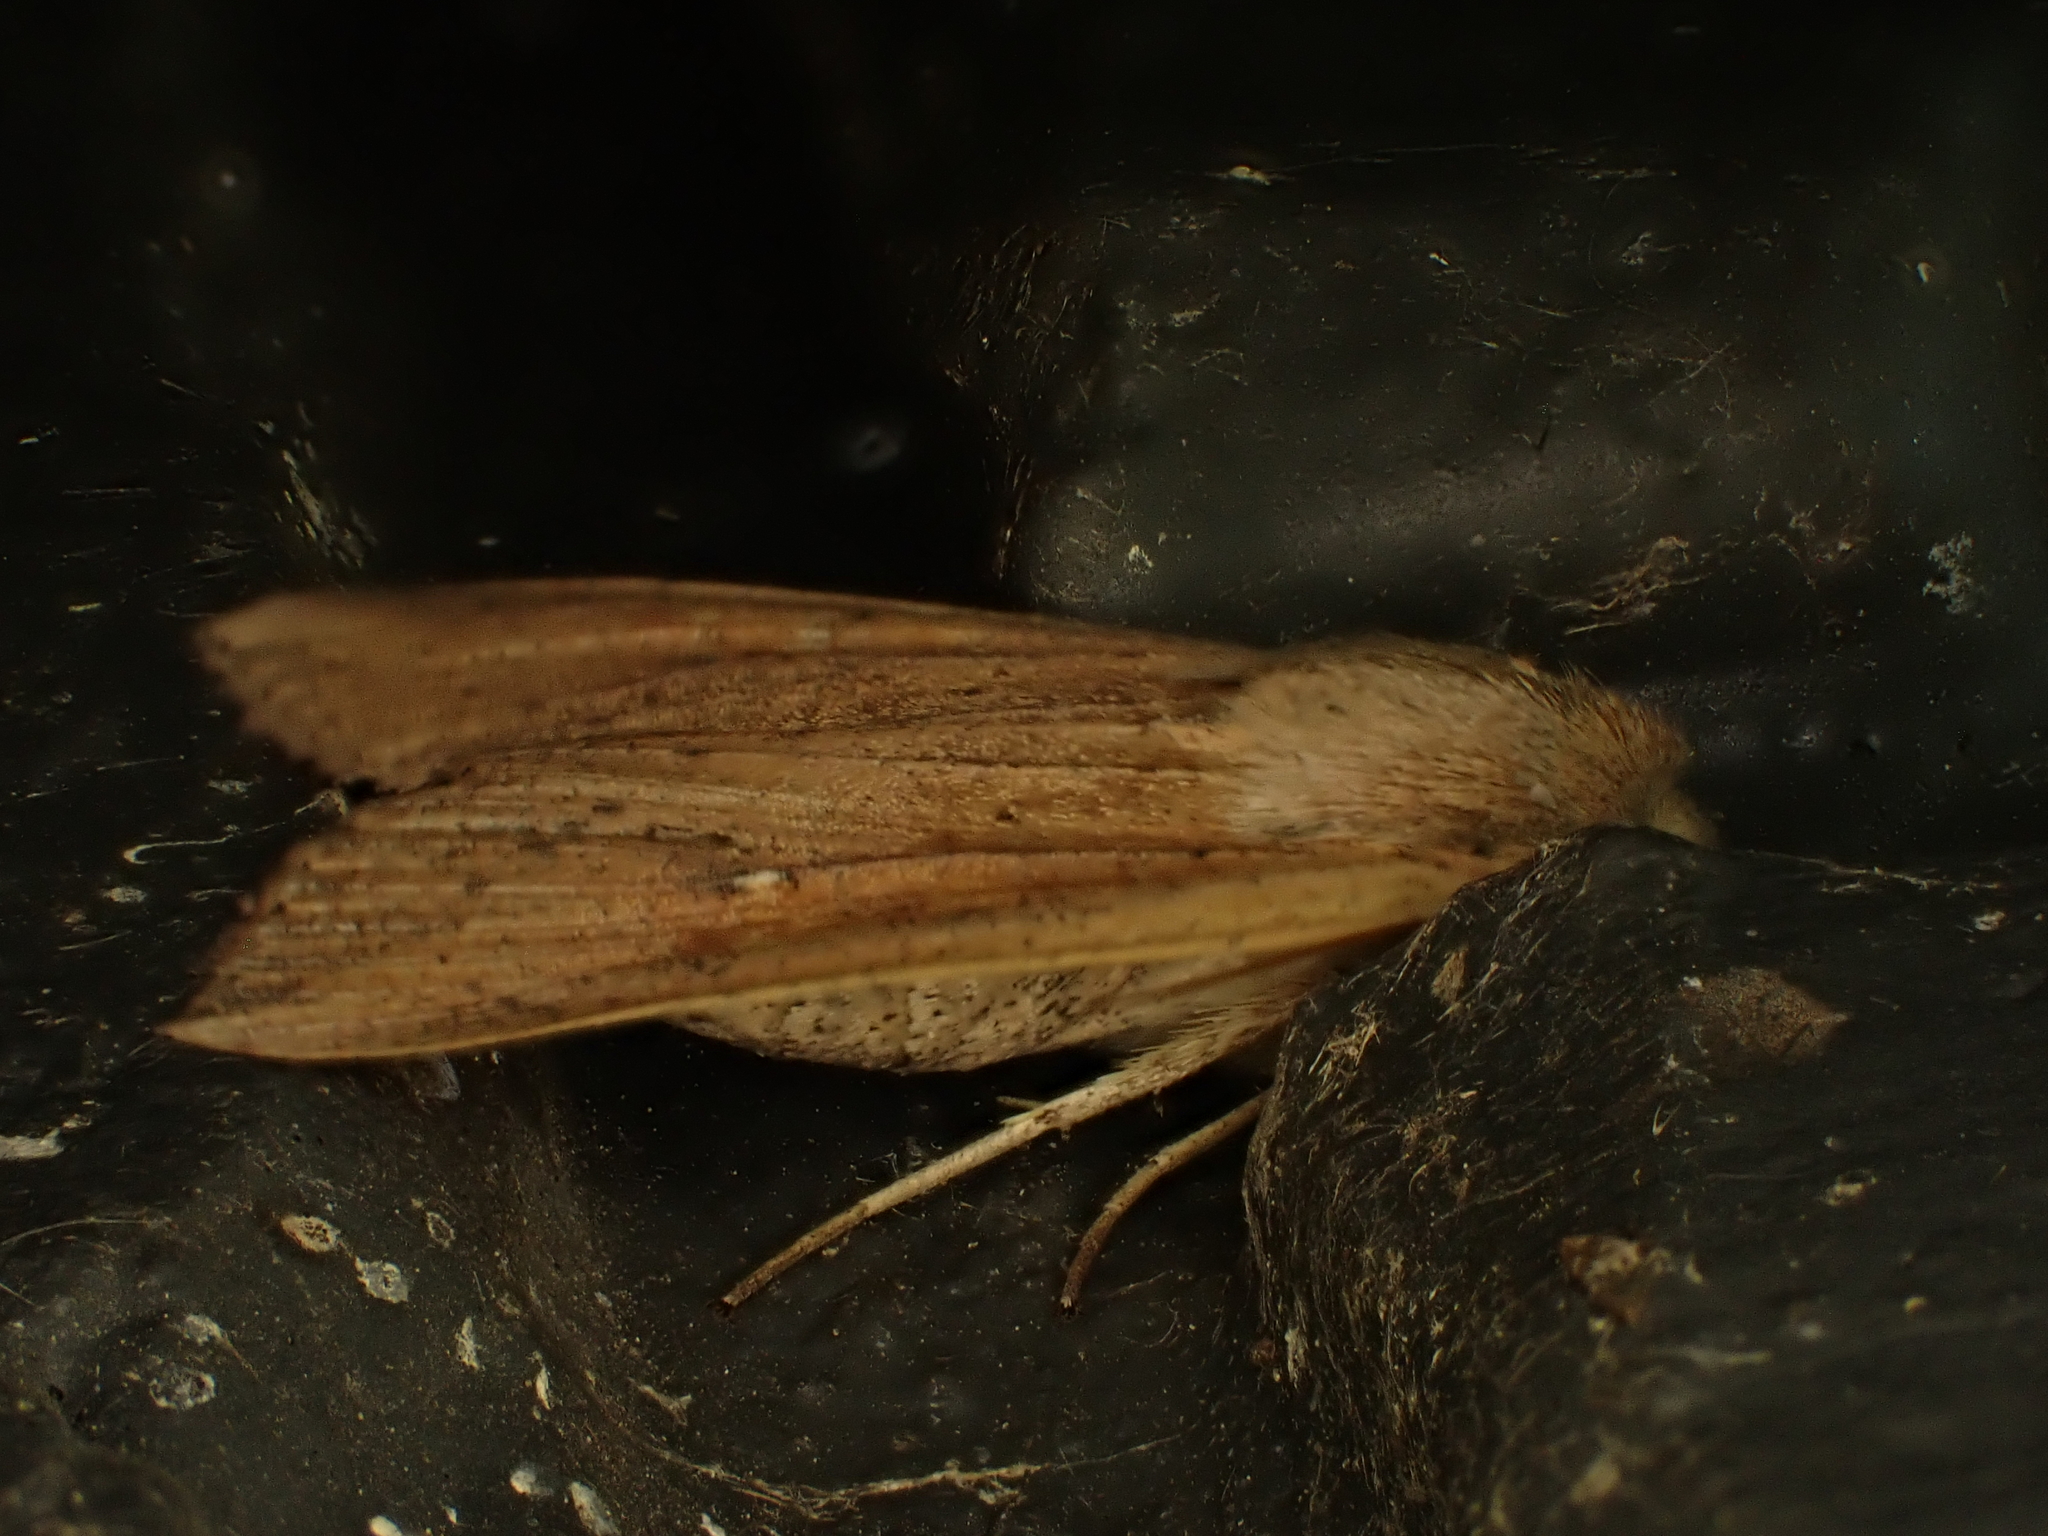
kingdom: Animalia
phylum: Arthropoda
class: Insecta
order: Lepidoptera
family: Noctuidae
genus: Mythimna
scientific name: Mythimna separata
